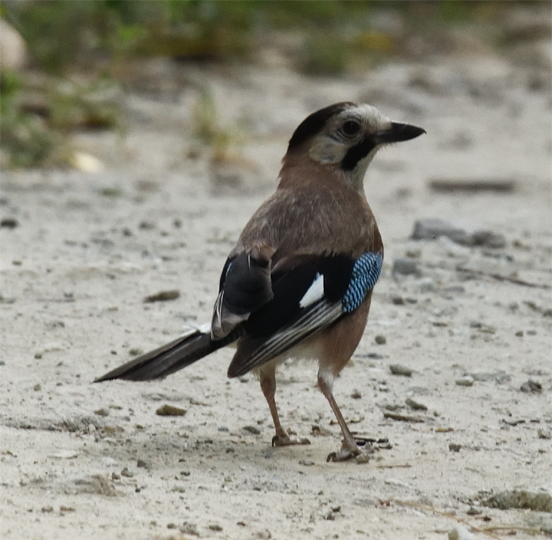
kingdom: Animalia
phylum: Chordata
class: Aves
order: Passeriformes
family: Corvidae
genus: Garrulus
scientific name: Garrulus glandarius
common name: Eurasian jay
